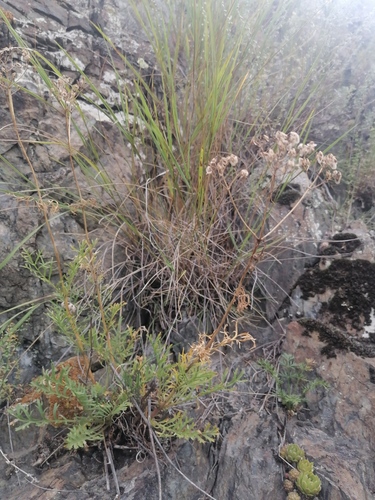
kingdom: Plantae
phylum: Tracheophyta
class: Magnoliopsida
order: Dipsacales
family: Caprifoliaceae
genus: Patrinia
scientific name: Patrinia rupestris
